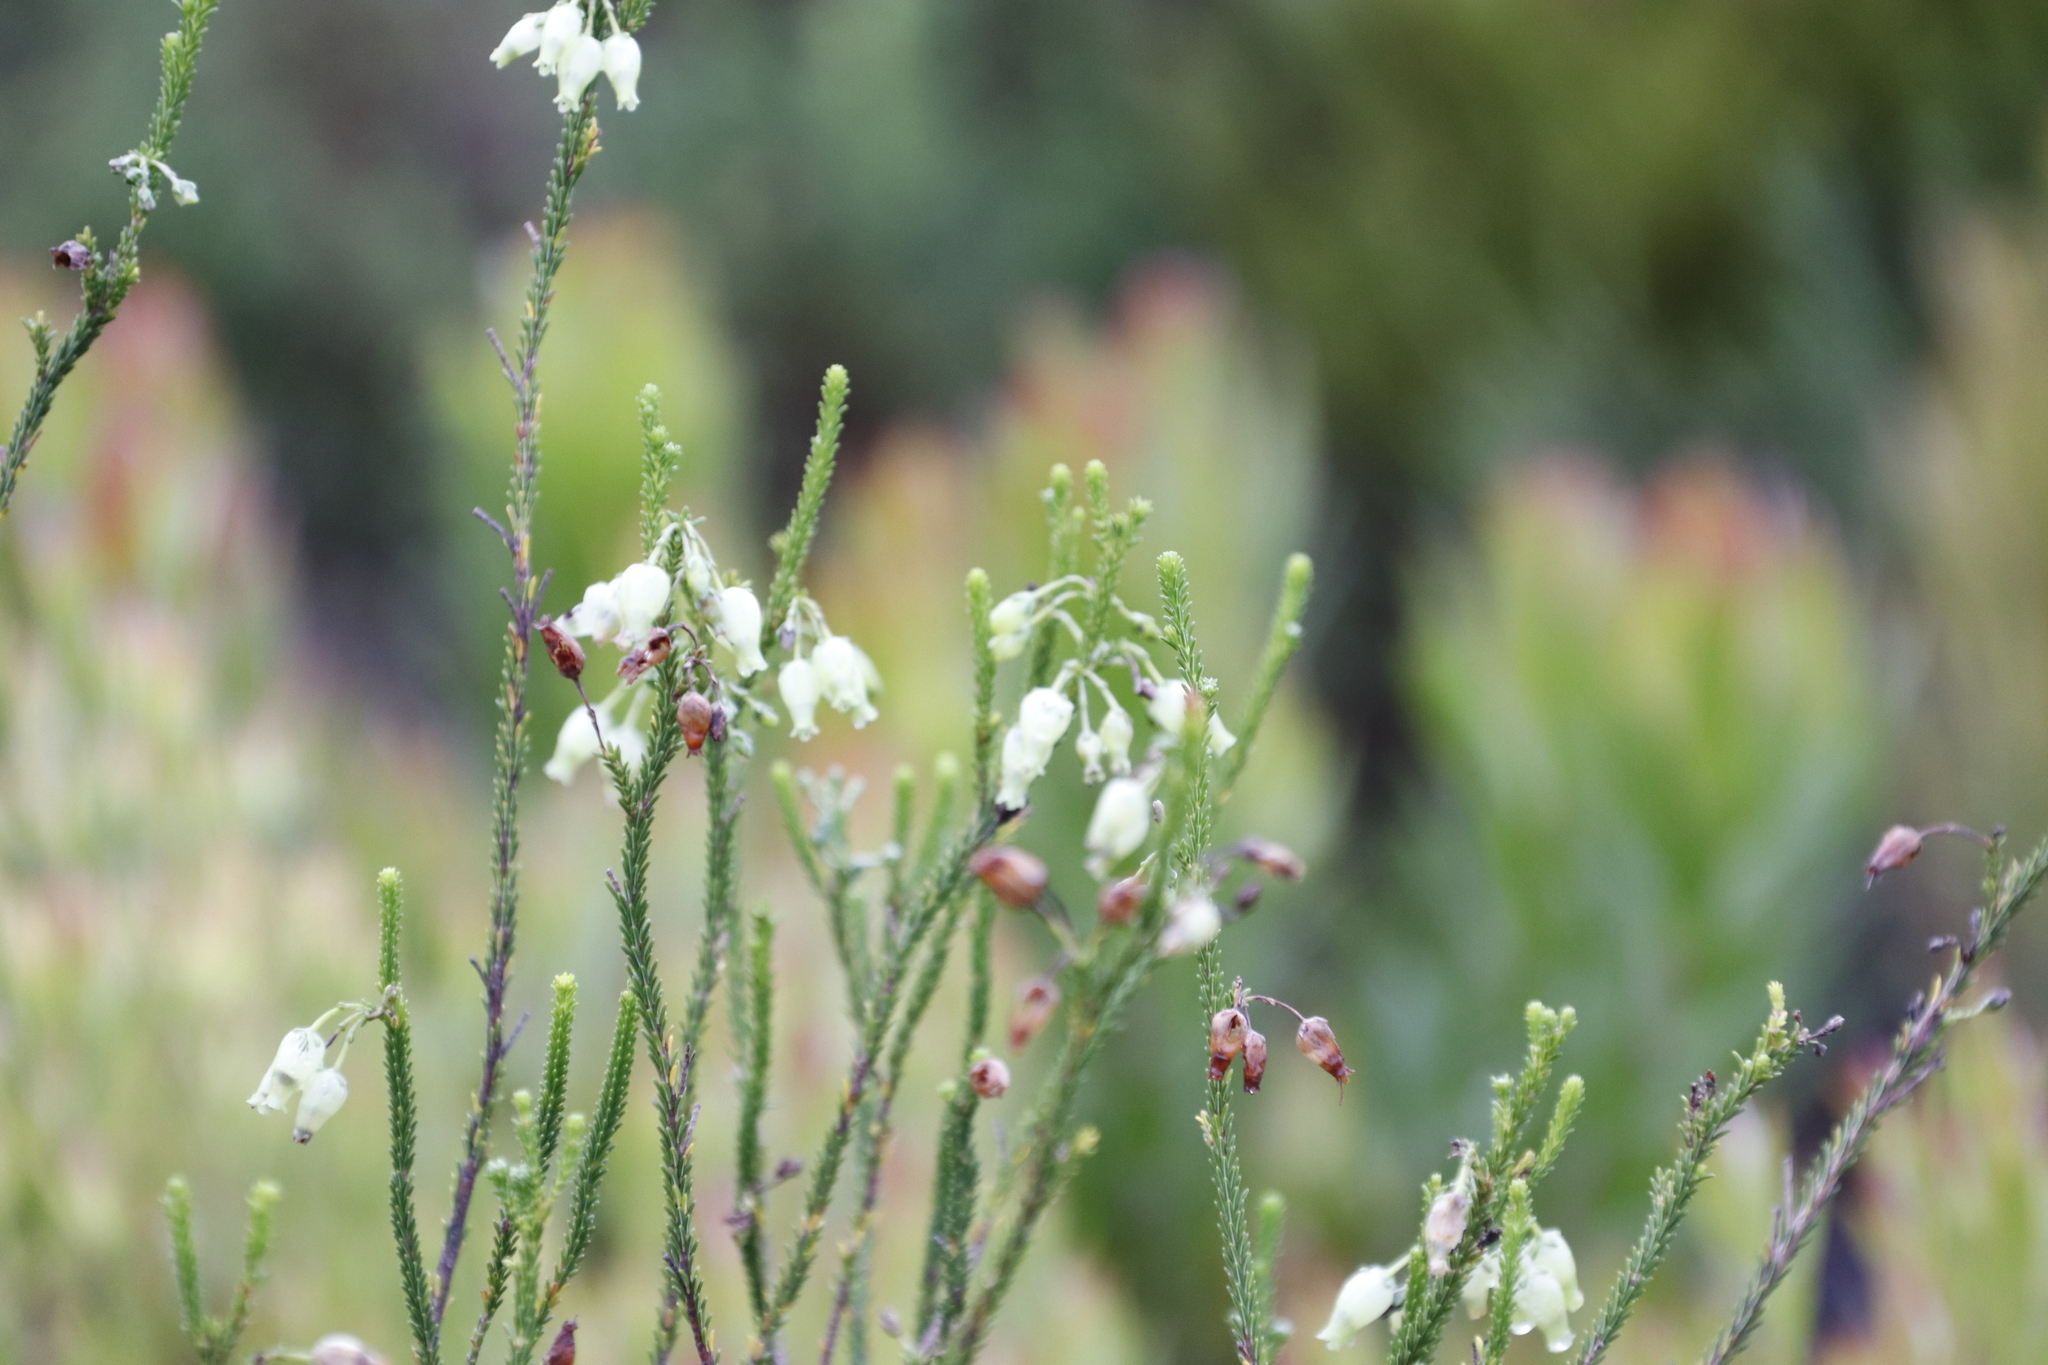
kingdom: Plantae
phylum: Tracheophyta
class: Magnoliopsida
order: Ericales
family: Ericaceae
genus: Erica
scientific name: Erica urna-viridis
